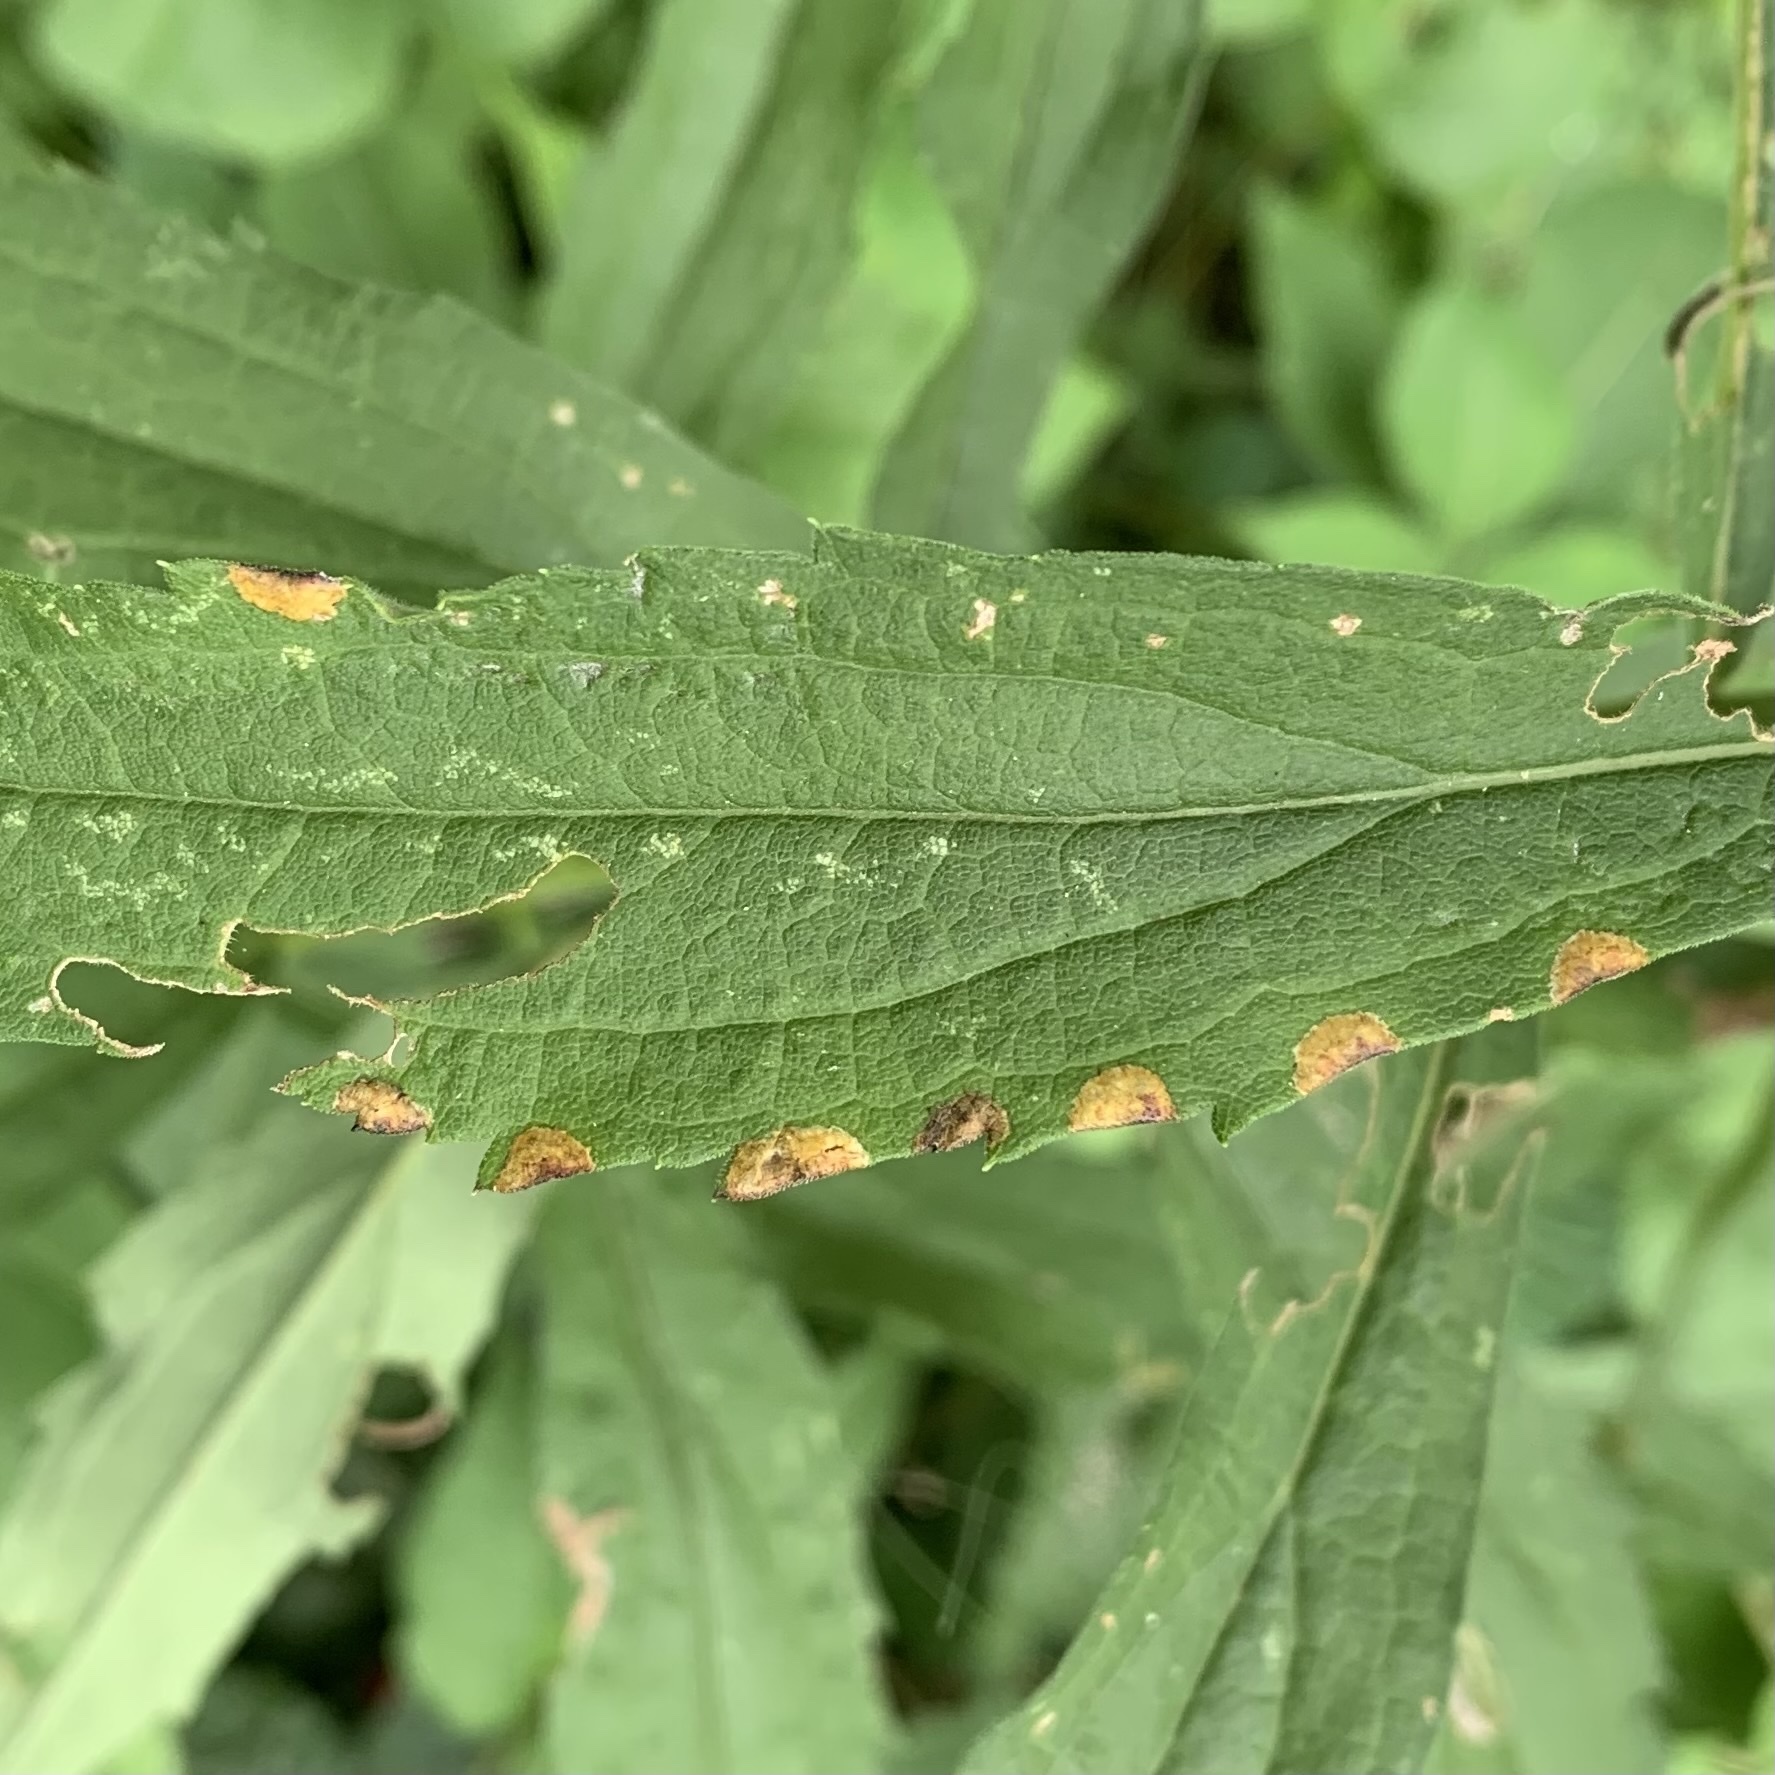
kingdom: Animalia
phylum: Arthropoda
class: Insecta
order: Diptera
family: Cecidomyiidae
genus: Asteromyia
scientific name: Asteromyia carbonifera
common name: Carbonifera goldenrod gall midge
